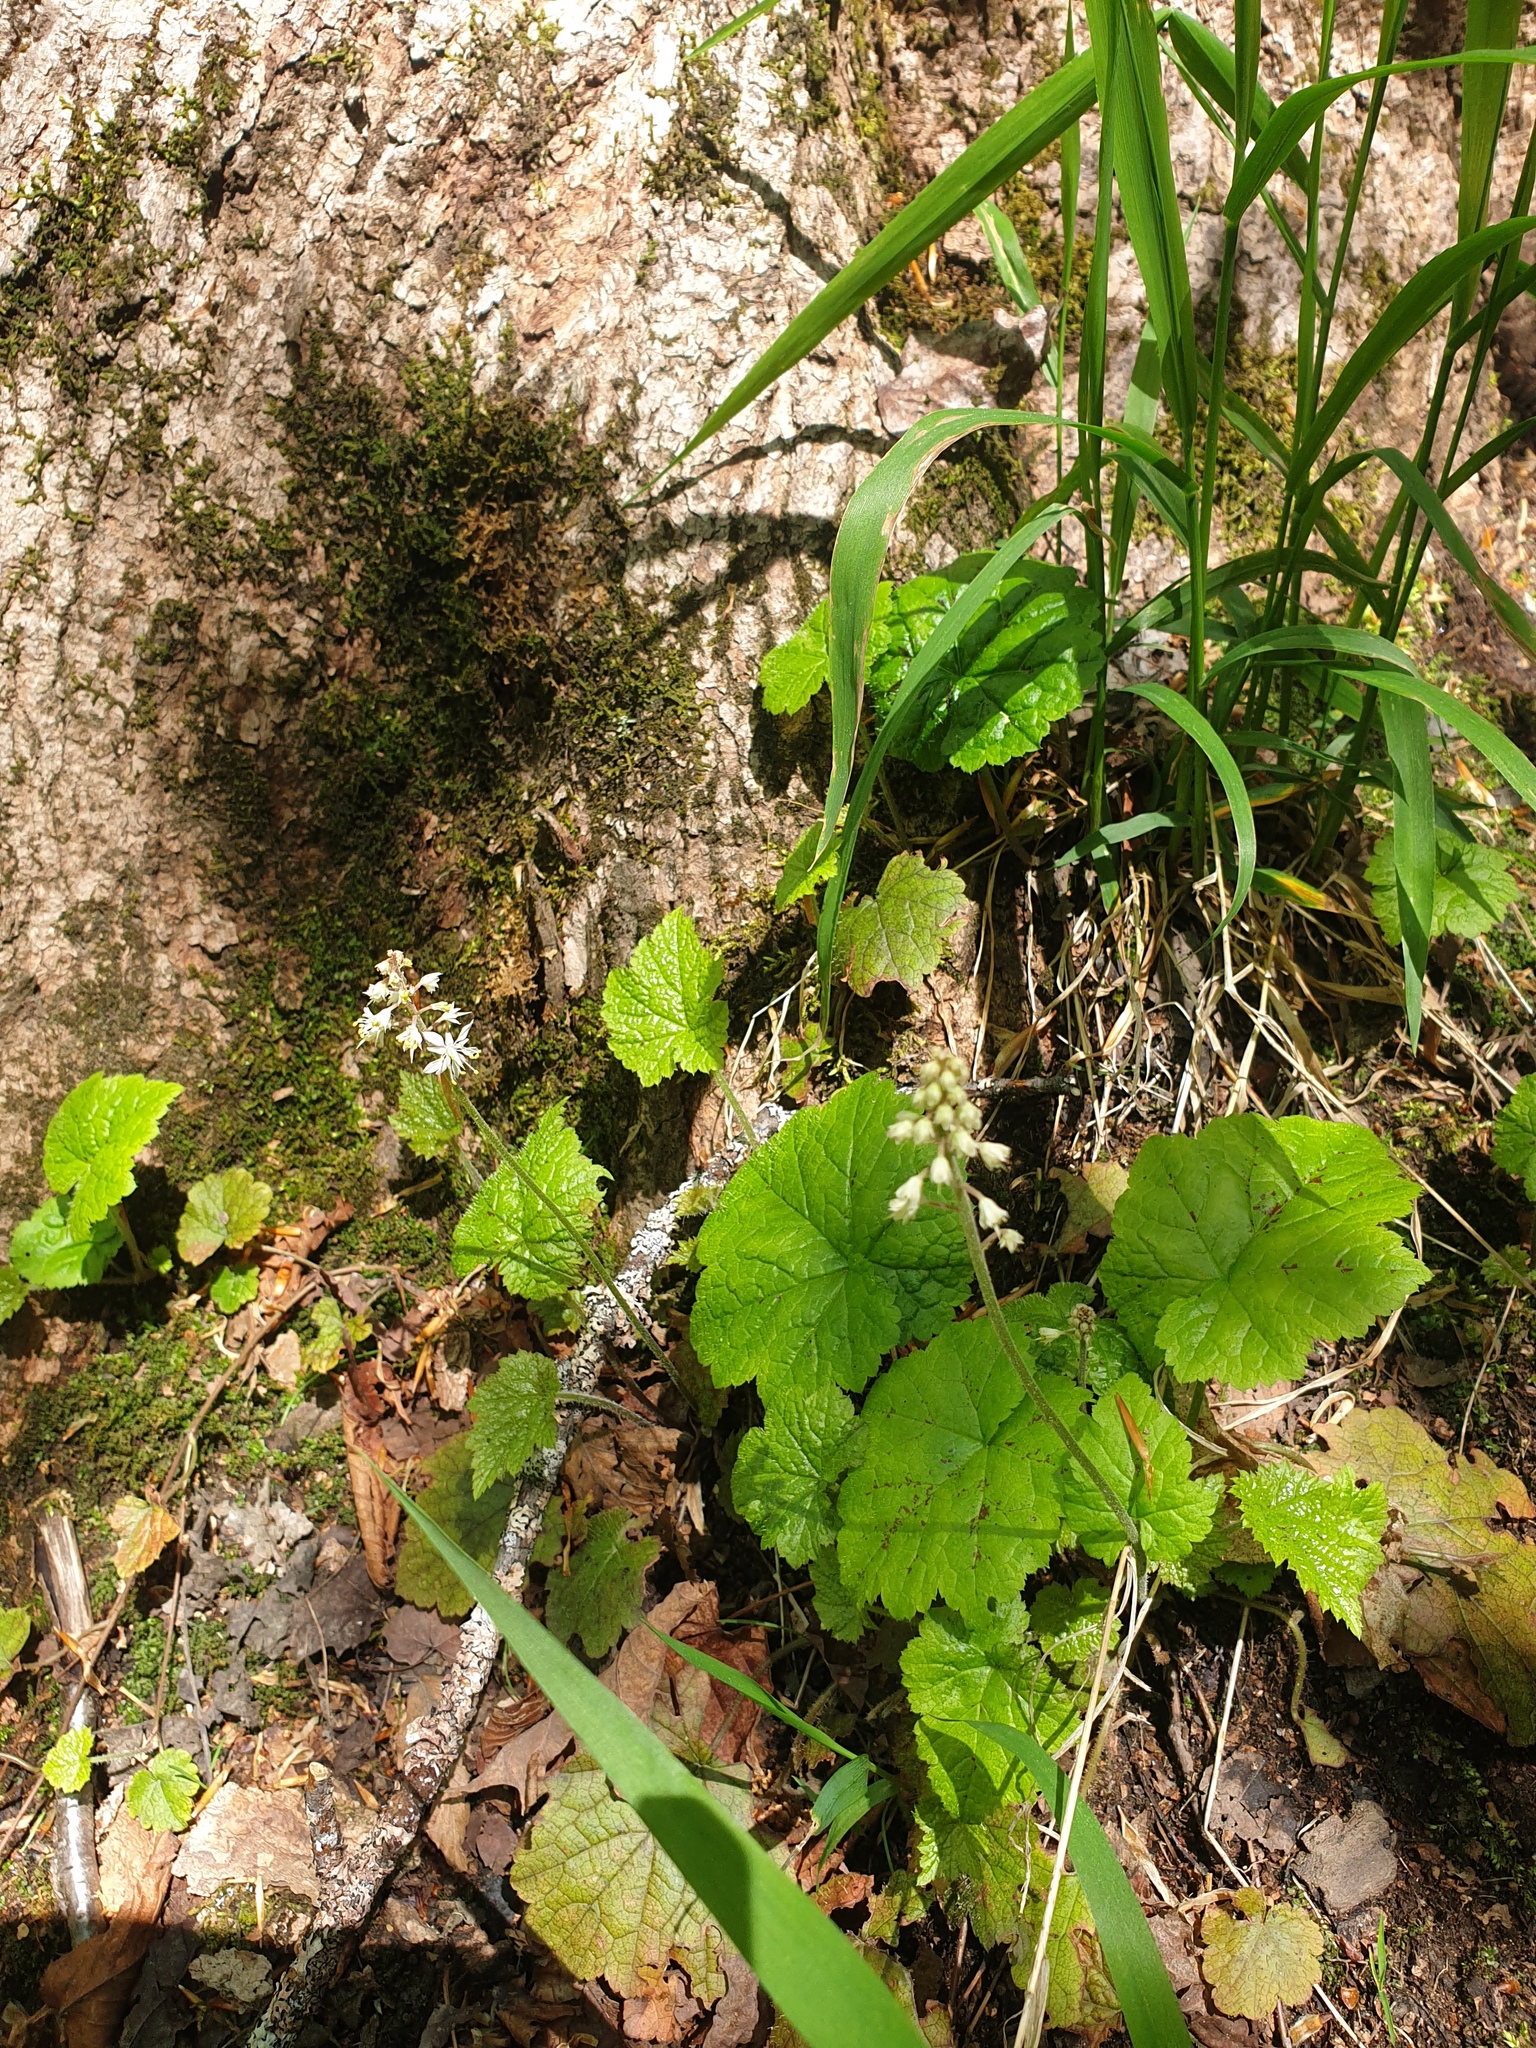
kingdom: Plantae
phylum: Tracheophyta
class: Magnoliopsida
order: Saxifragales
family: Saxifragaceae
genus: Tiarella
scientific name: Tiarella stolonifera
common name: Stoloniferous foamflower
